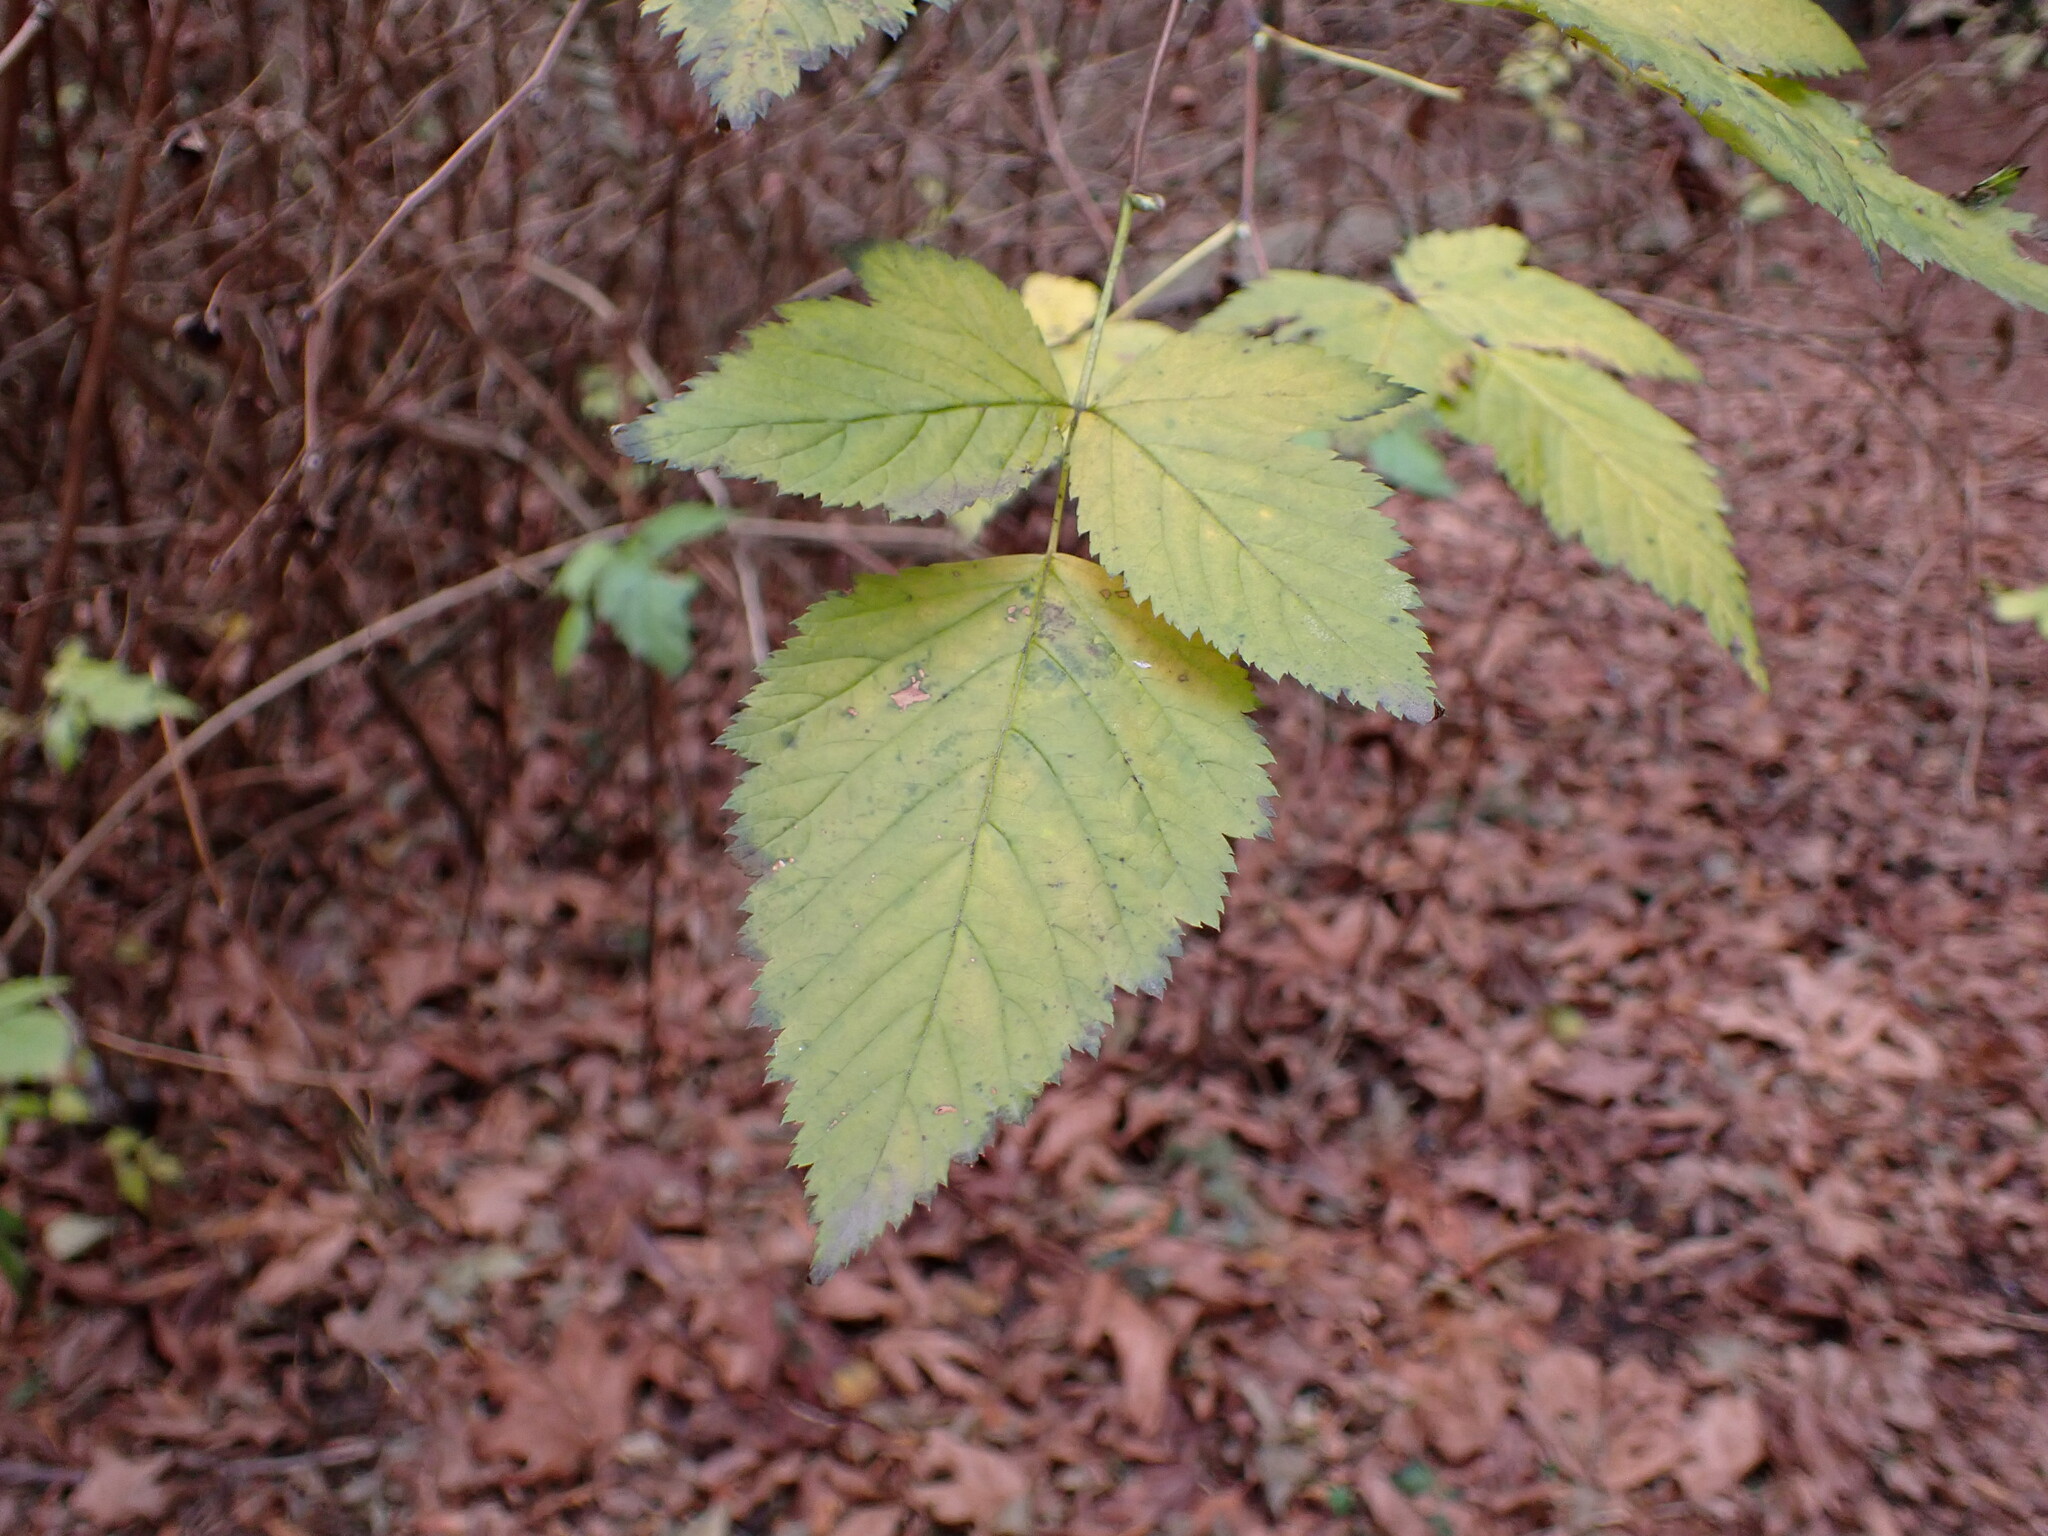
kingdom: Plantae
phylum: Tracheophyta
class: Magnoliopsida
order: Rosales
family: Rosaceae
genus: Rubus
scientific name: Rubus spectabilis
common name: Salmonberry
